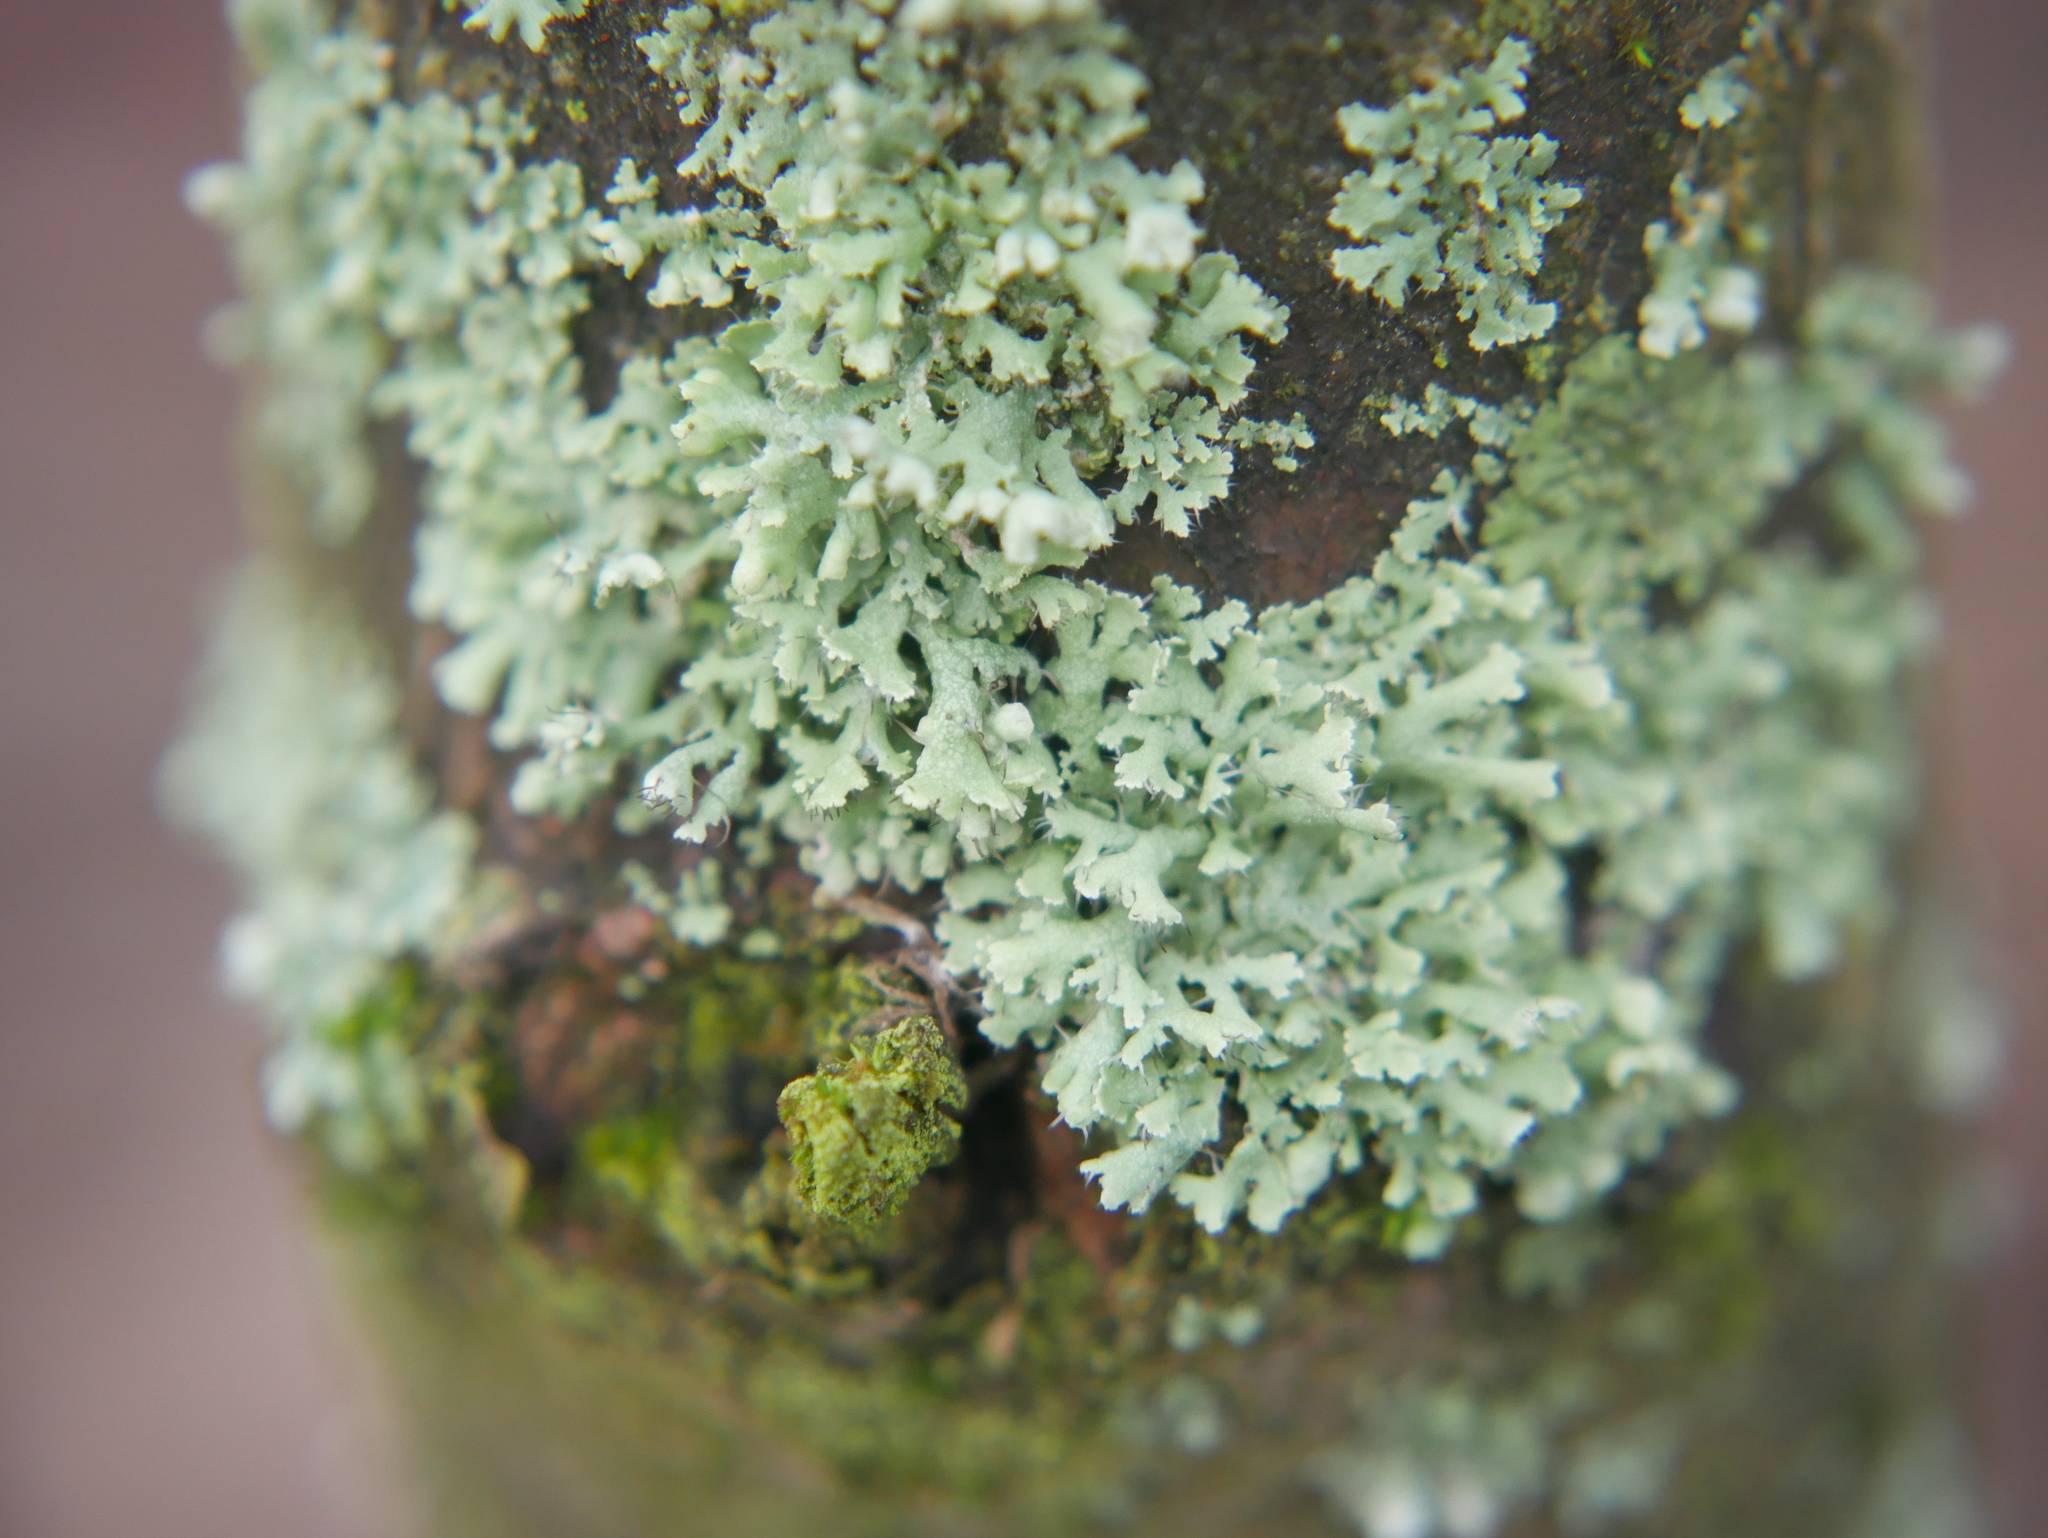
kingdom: Fungi
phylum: Ascomycota
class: Lecanoromycetes
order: Caliciales
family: Physciaceae
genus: Physcia
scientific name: Physcia adscendens
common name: Hooded rosette lichen
